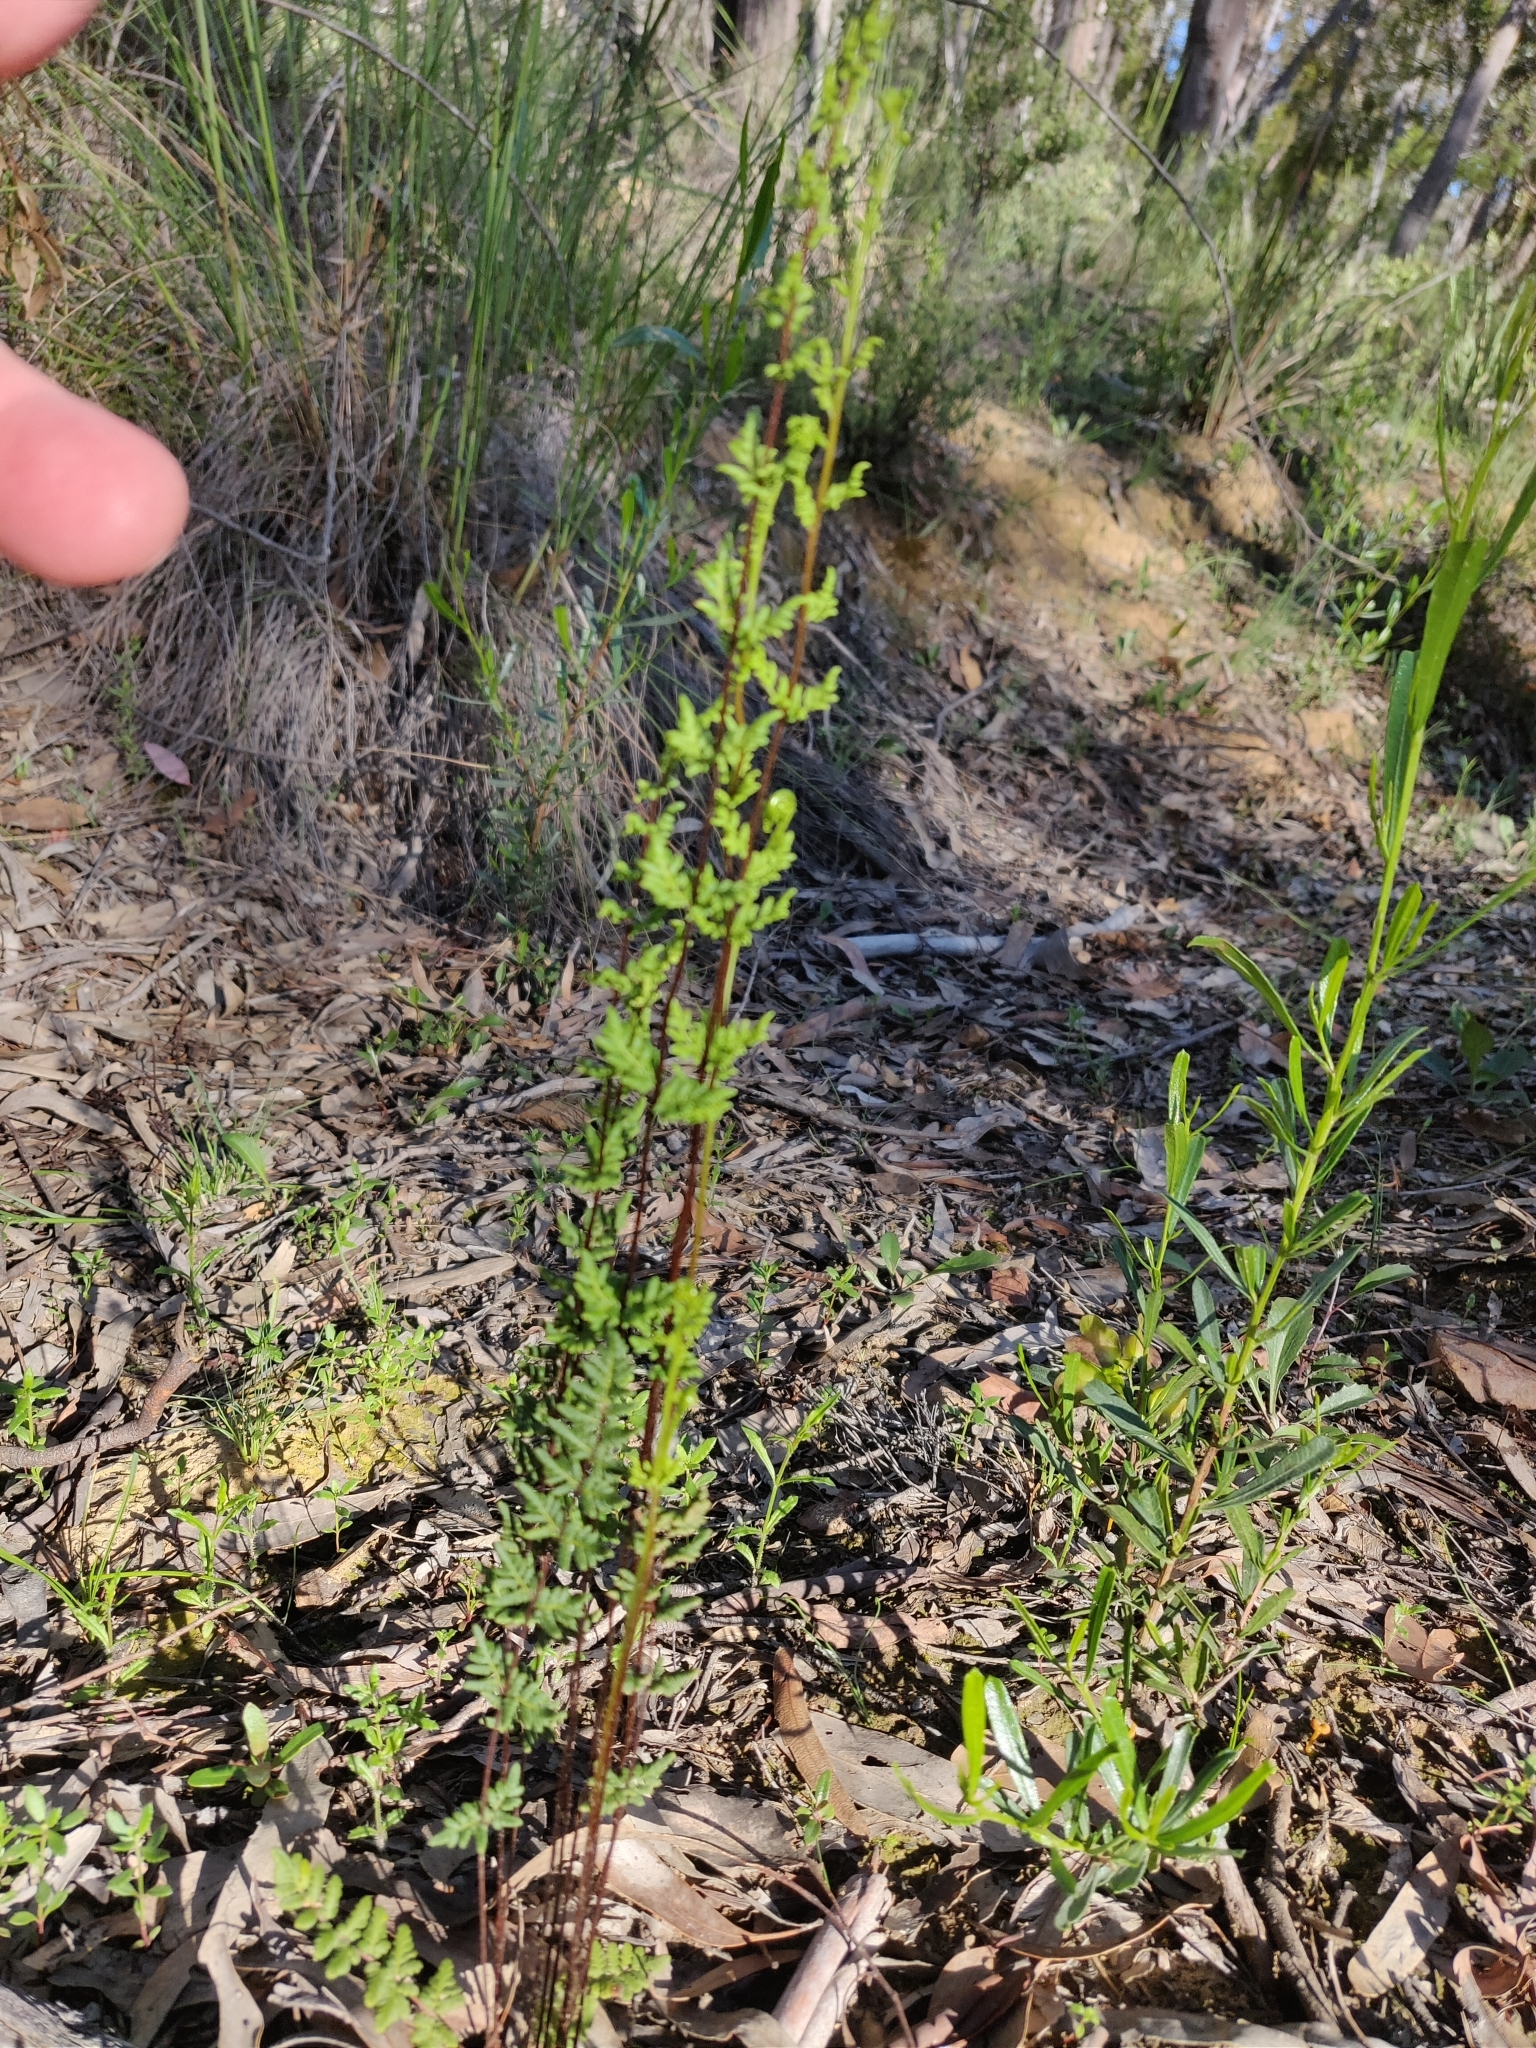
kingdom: Plantae
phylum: Tracheophyta
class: Polypodiopsida
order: Polypodiales
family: Pteridaceae
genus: Cheilanthes
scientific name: Cheilanthes sieberi
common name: Mulga fern
